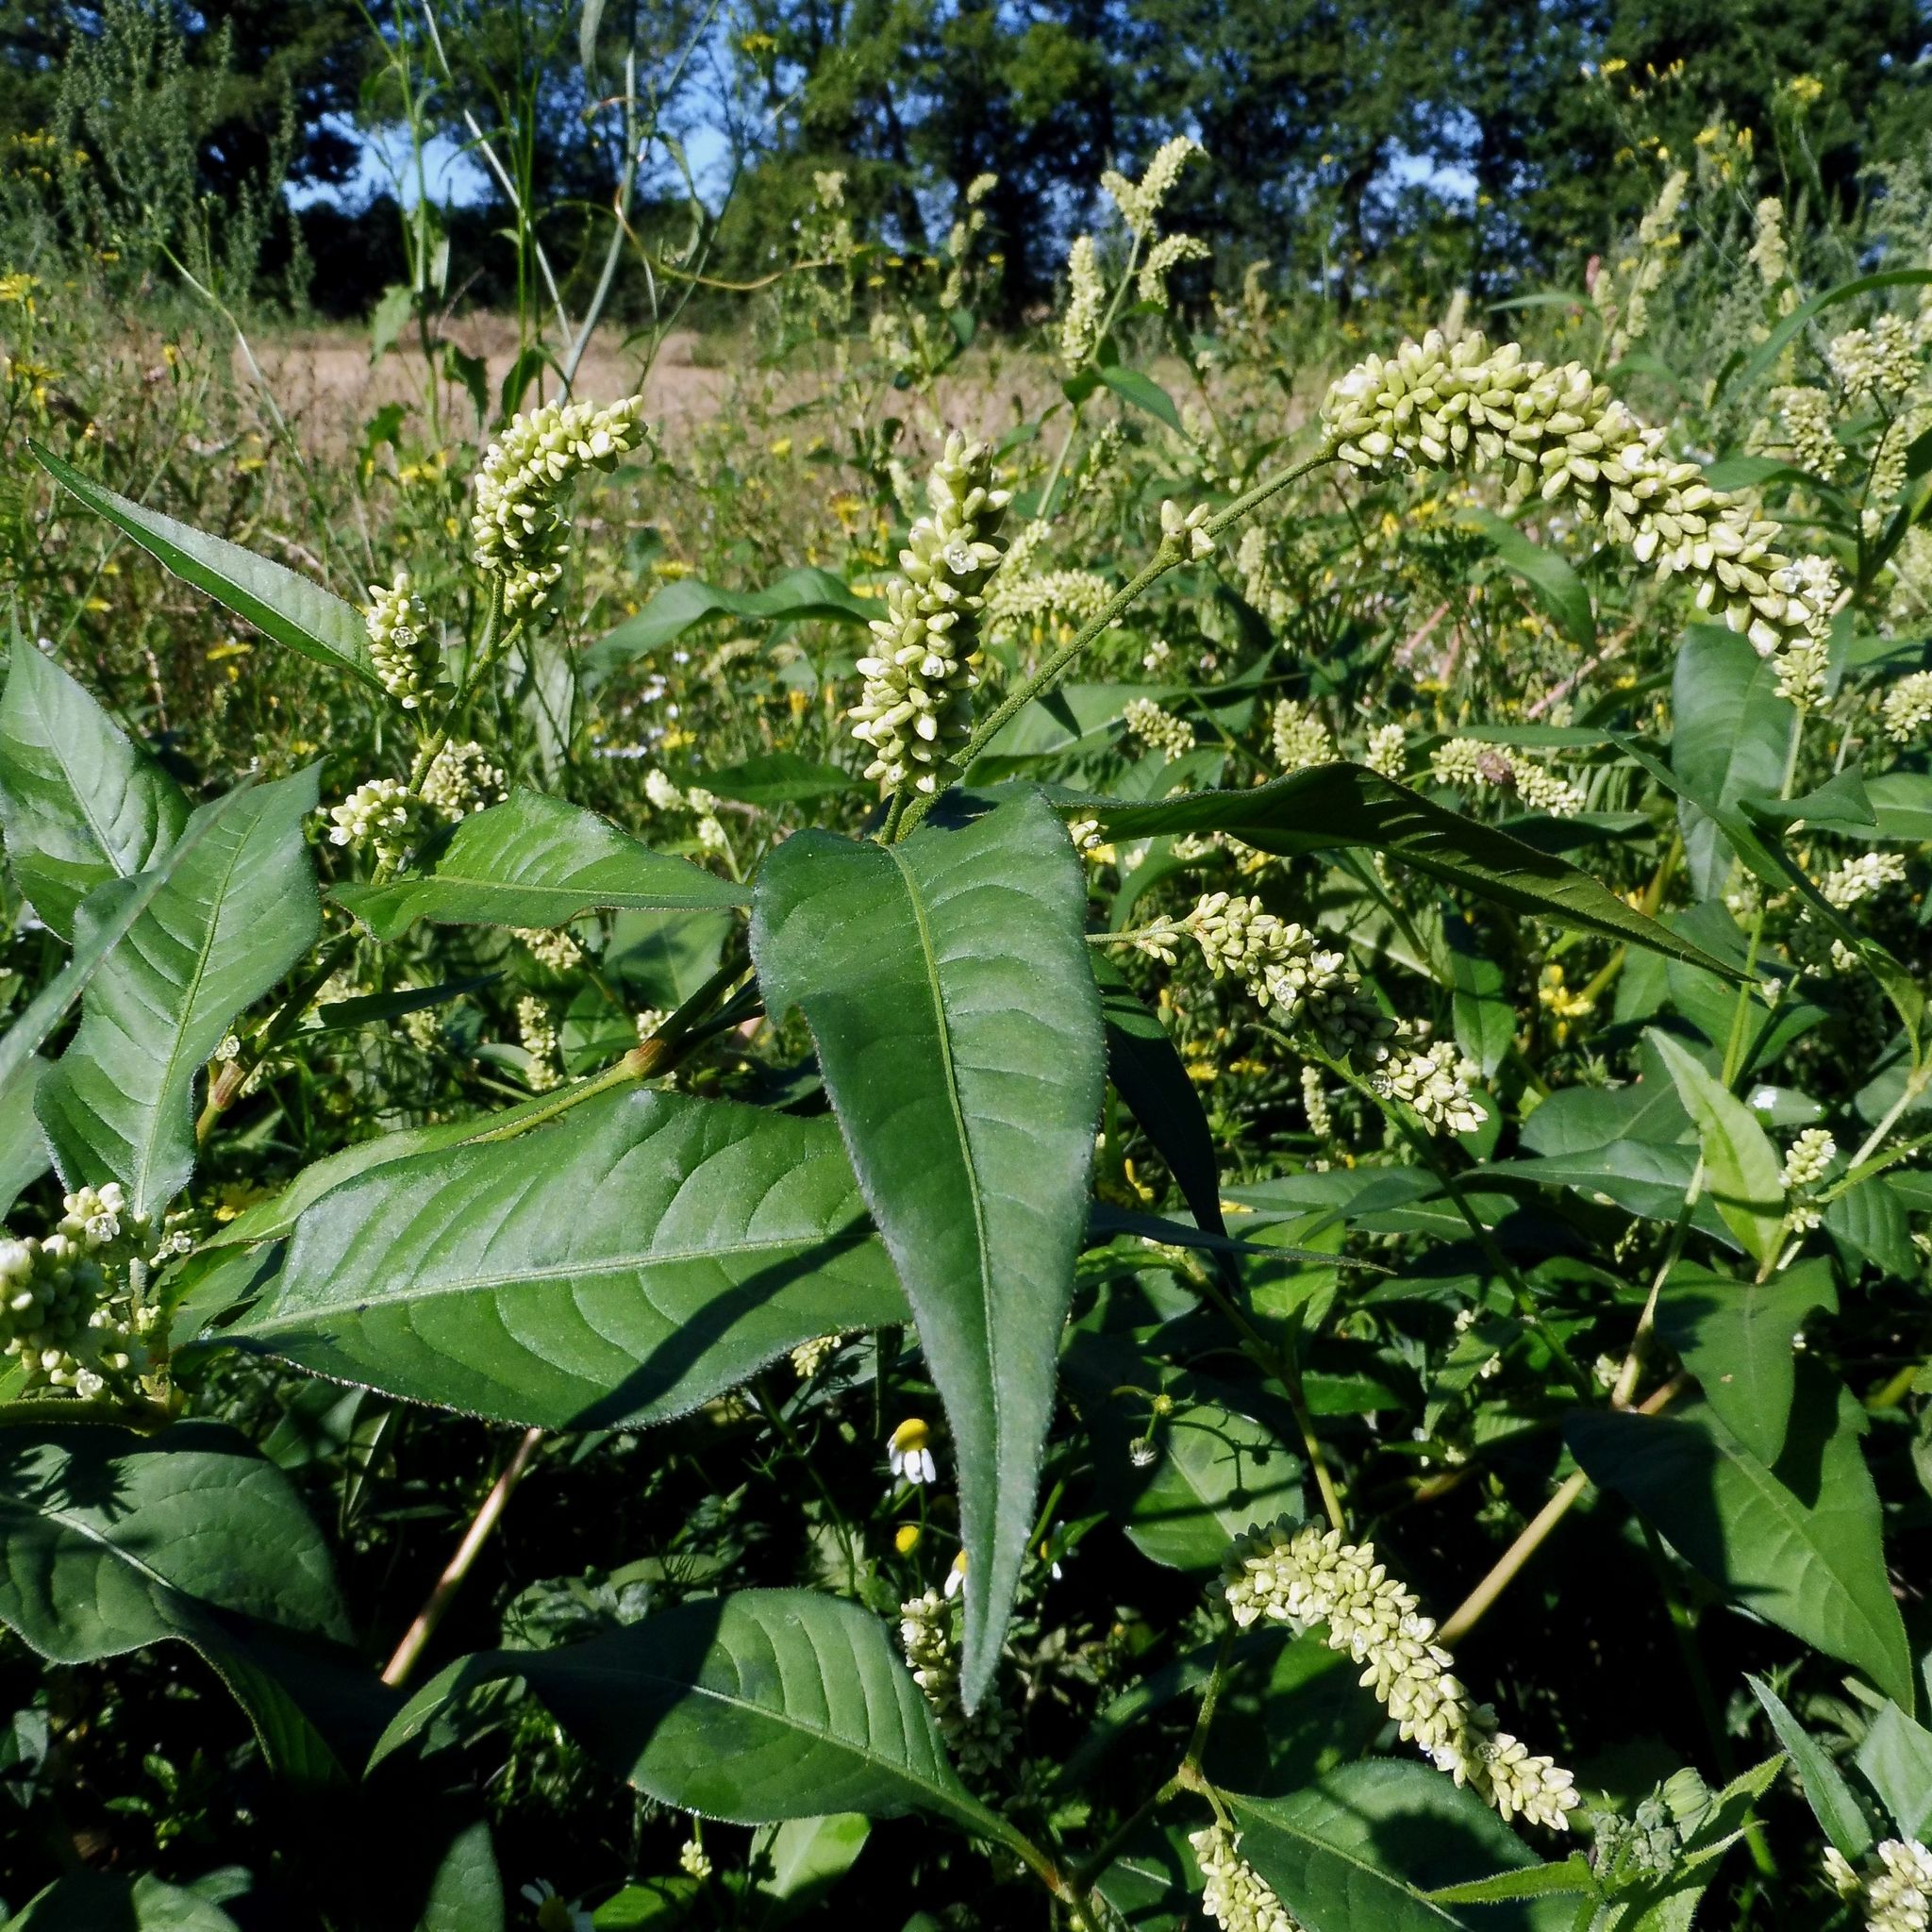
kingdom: Plantae
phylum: Tracheophyta
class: Magnoliopsida
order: Caryophyllales
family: Polygonaceae
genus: Persicaria
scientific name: Persicaria lapathifolia
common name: Curlytop knotweed
